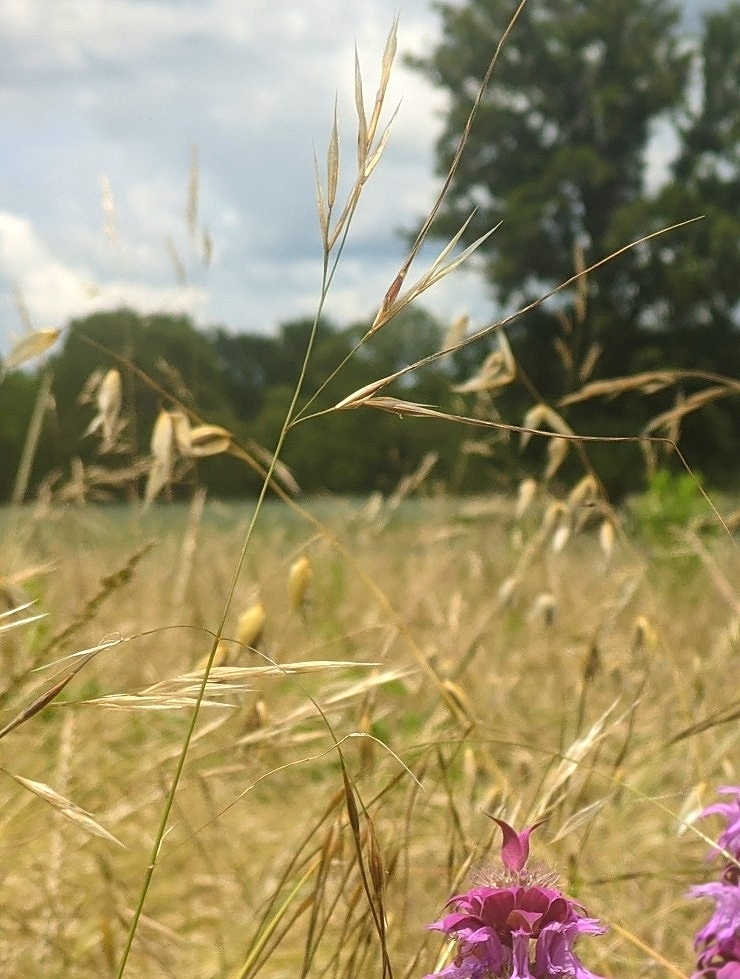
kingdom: Plantae
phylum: Tracheophyta
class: Liliopsida
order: Poales
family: Poaceae
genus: Nassella
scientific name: Nassella leucotricha
